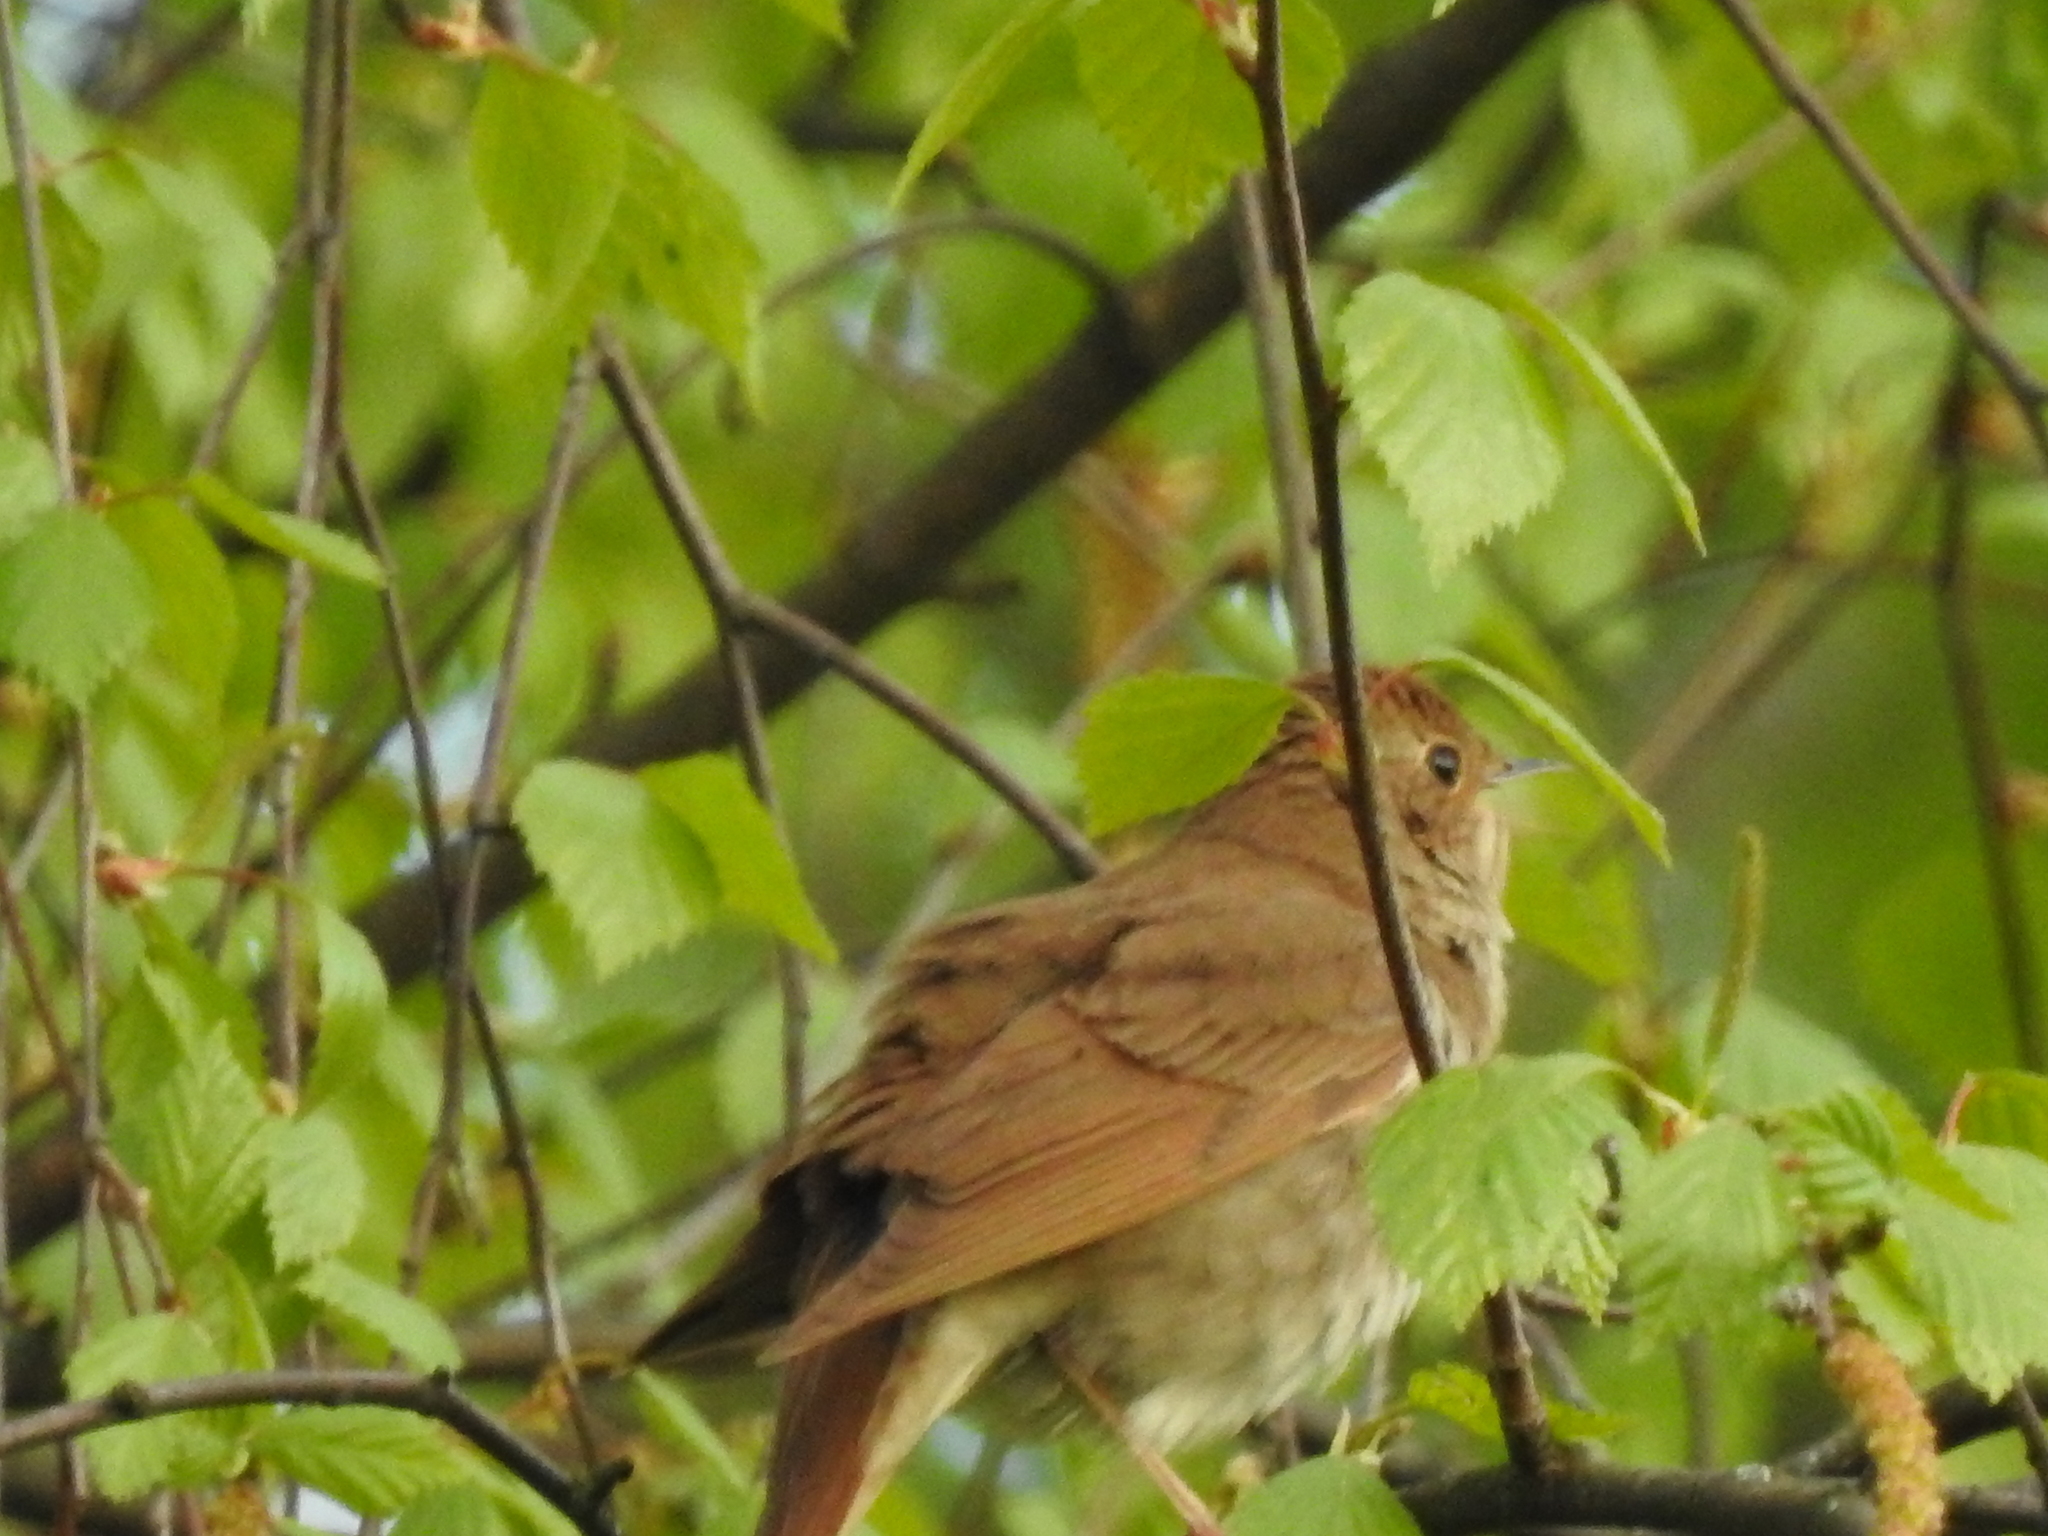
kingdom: Animalia
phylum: Chordata
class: Aves
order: Passeriformes
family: Muscicapidae
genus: Luscinia
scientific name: Luscinia luscinia
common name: Thrush nightingale
